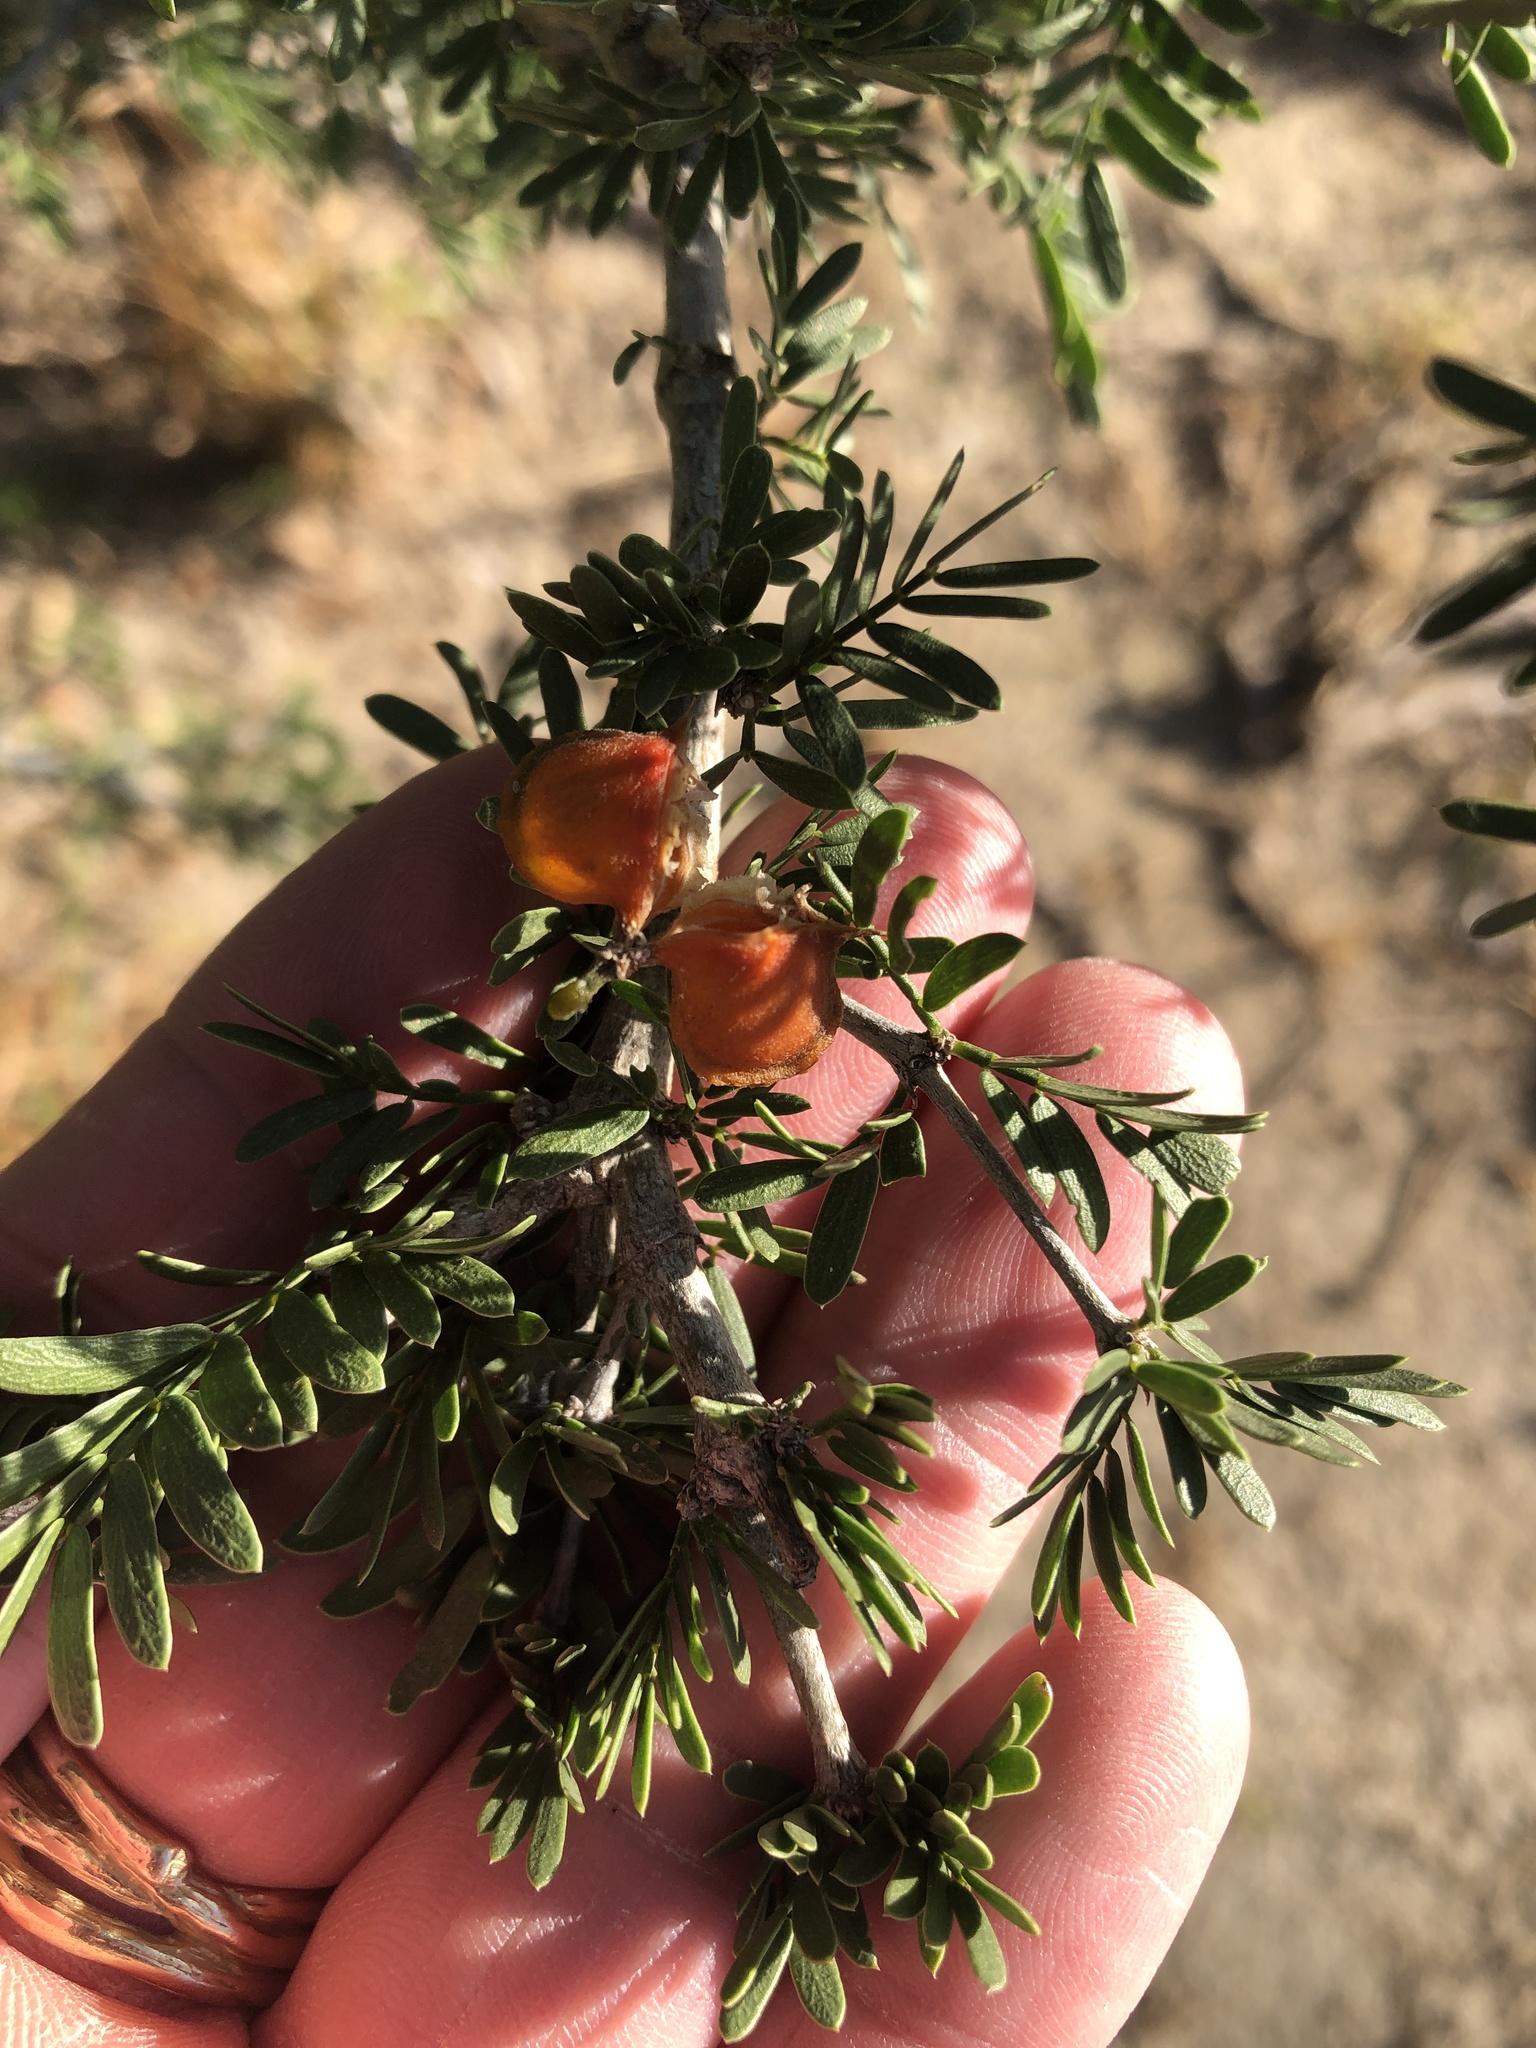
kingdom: Plantae
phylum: Tracheophyta
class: Magnoliopsida
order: Zygophyllales
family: Zygophyllaceae
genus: Porlieria
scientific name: Porlieria angustifolia
